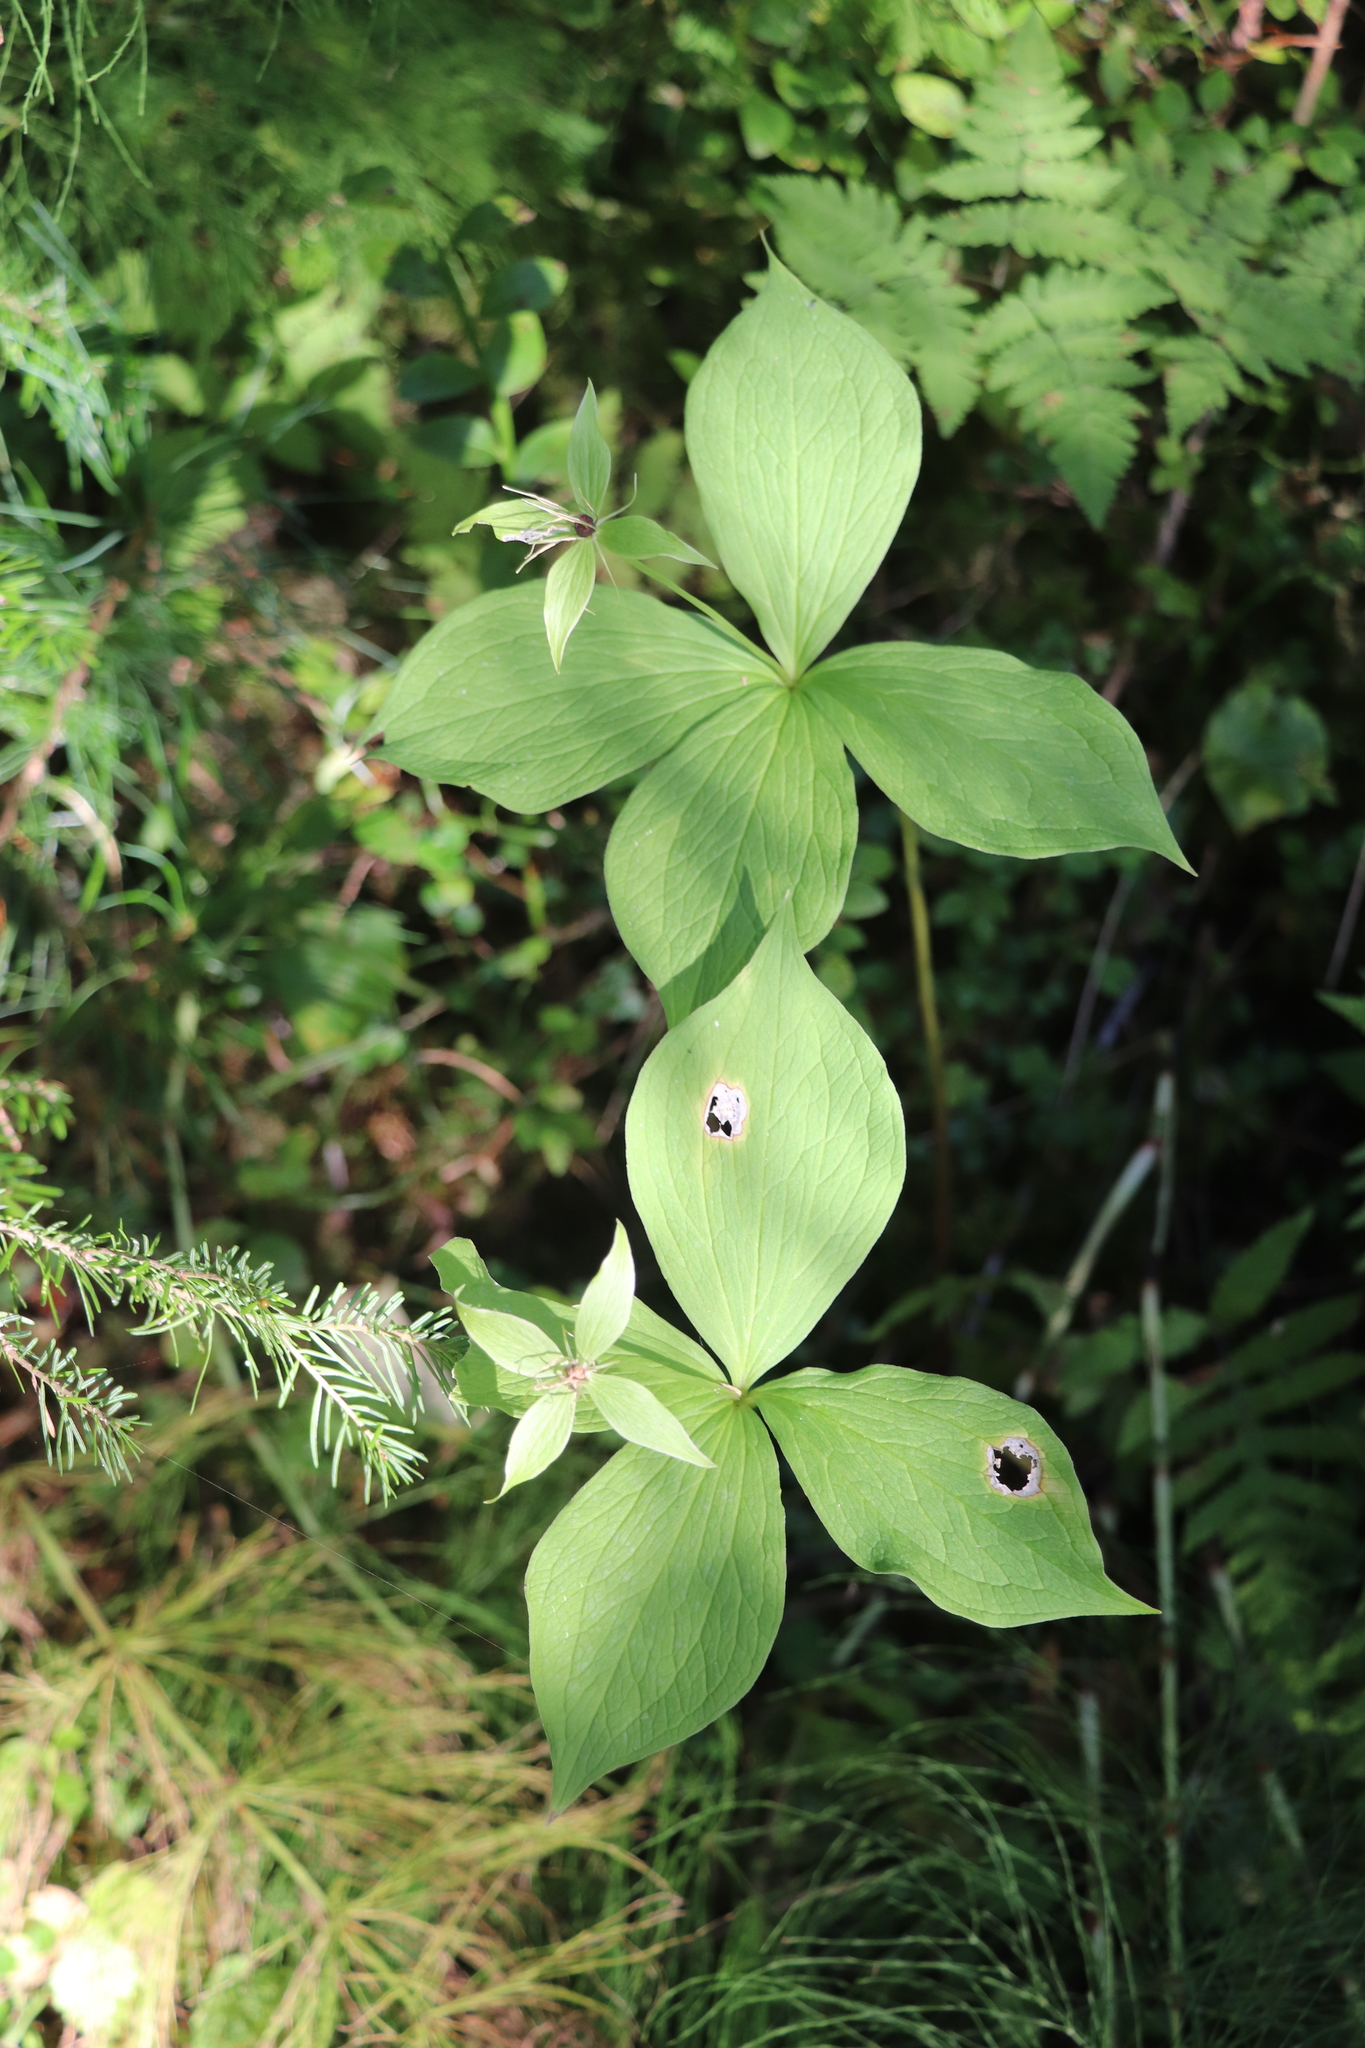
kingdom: Plantae
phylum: Tracheophyta
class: Liliopsida
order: Liliales
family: Melanthiaceae
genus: Paris
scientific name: Paris quadrifolia
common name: Herb-paris
